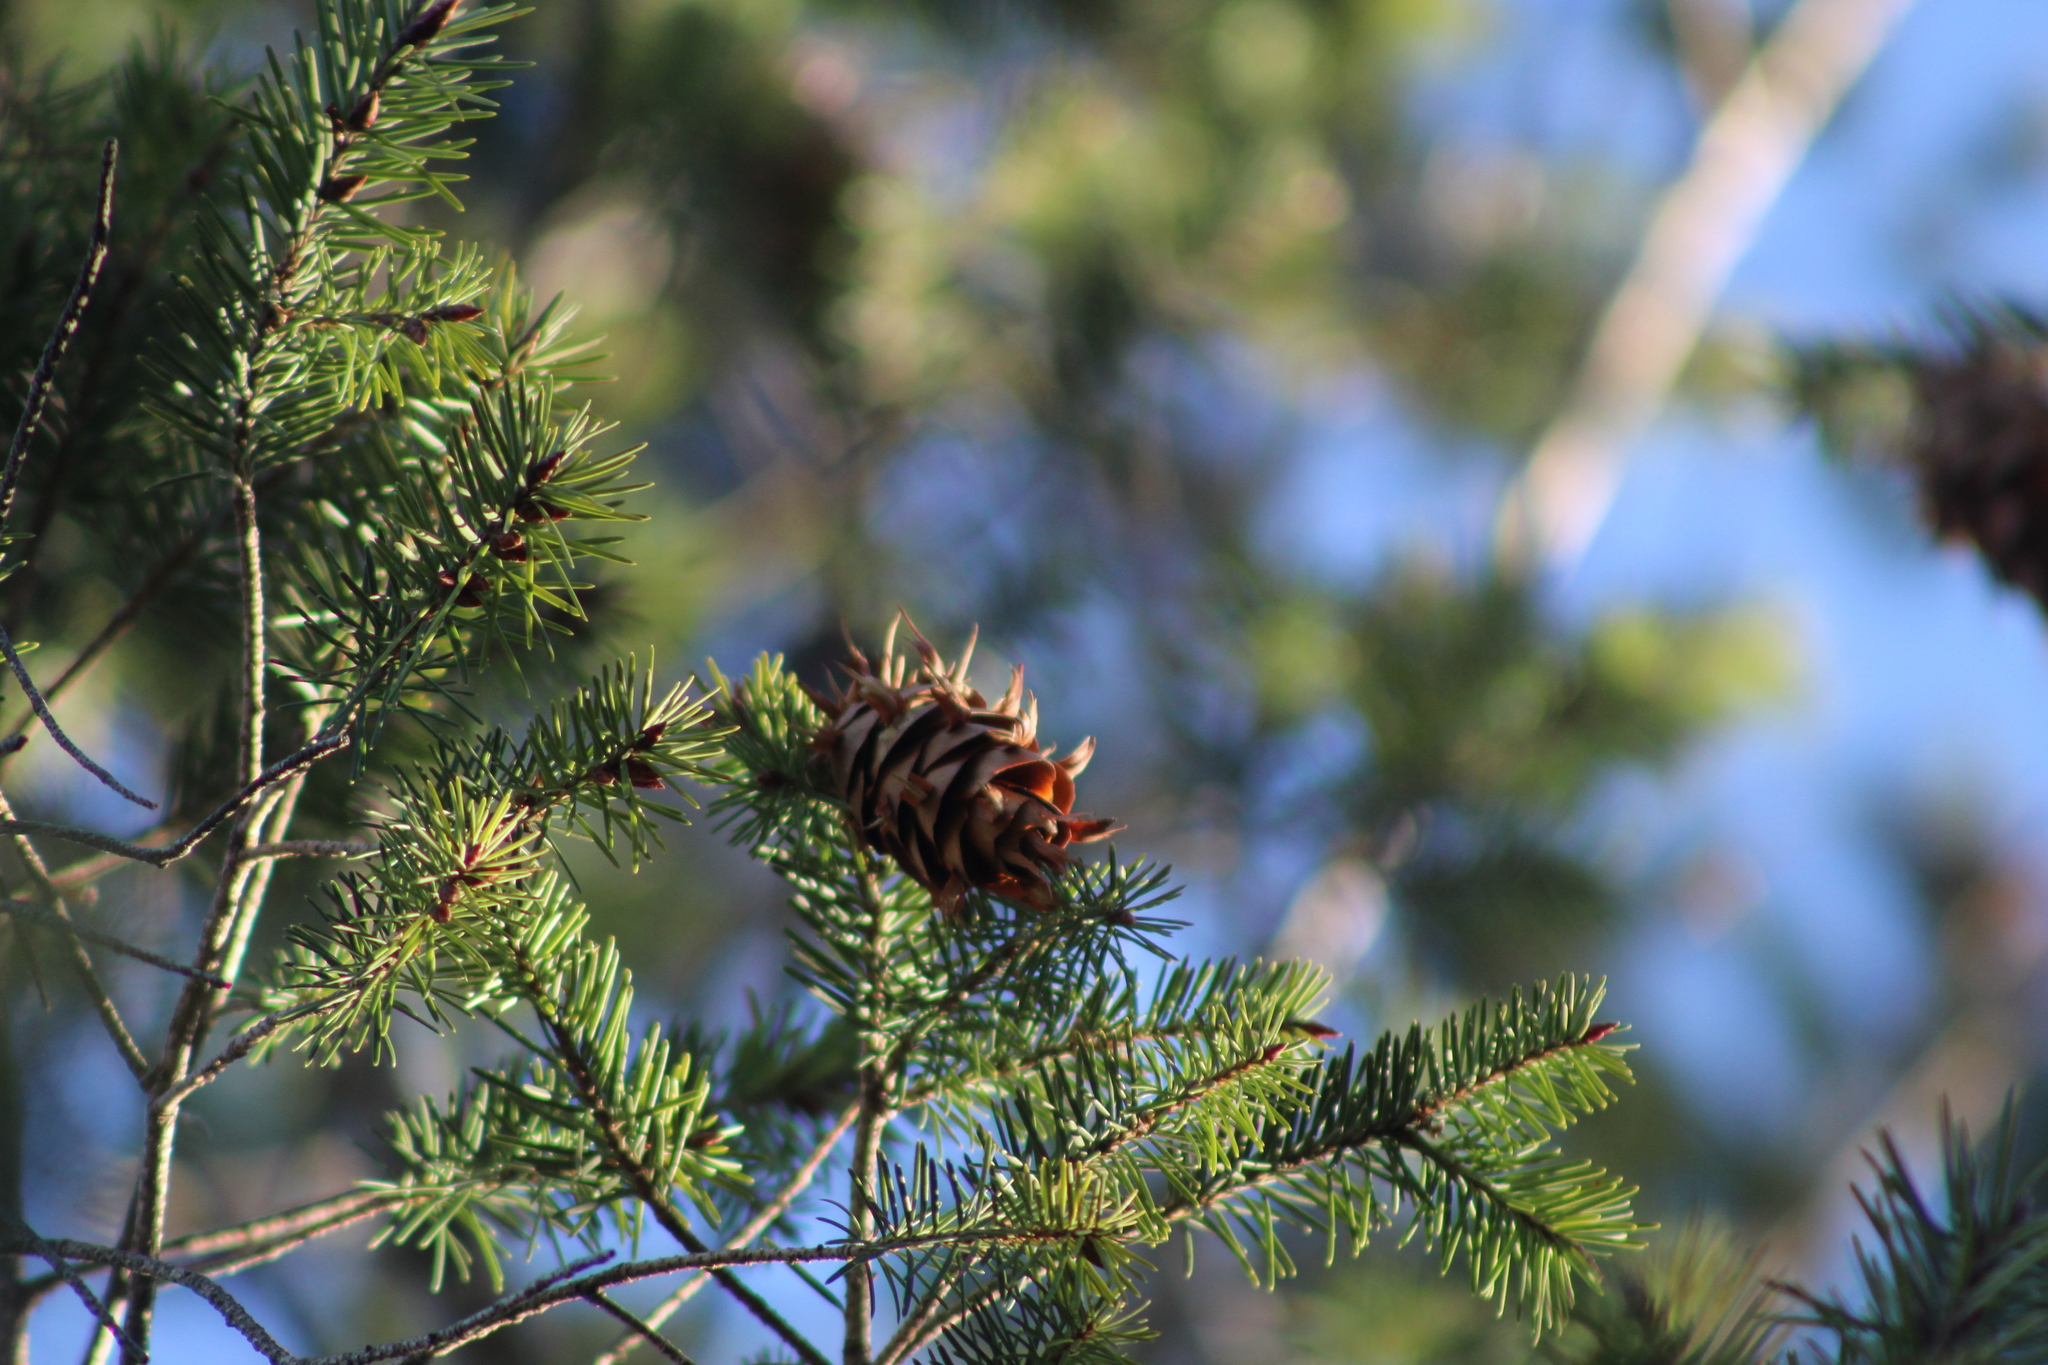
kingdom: Plantae
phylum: Tracheophyta
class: Pinopsida
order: Pinales
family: Pinaceae
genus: Pseudotsuga
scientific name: Pseudotsuga menziesii
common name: Douglas fir
